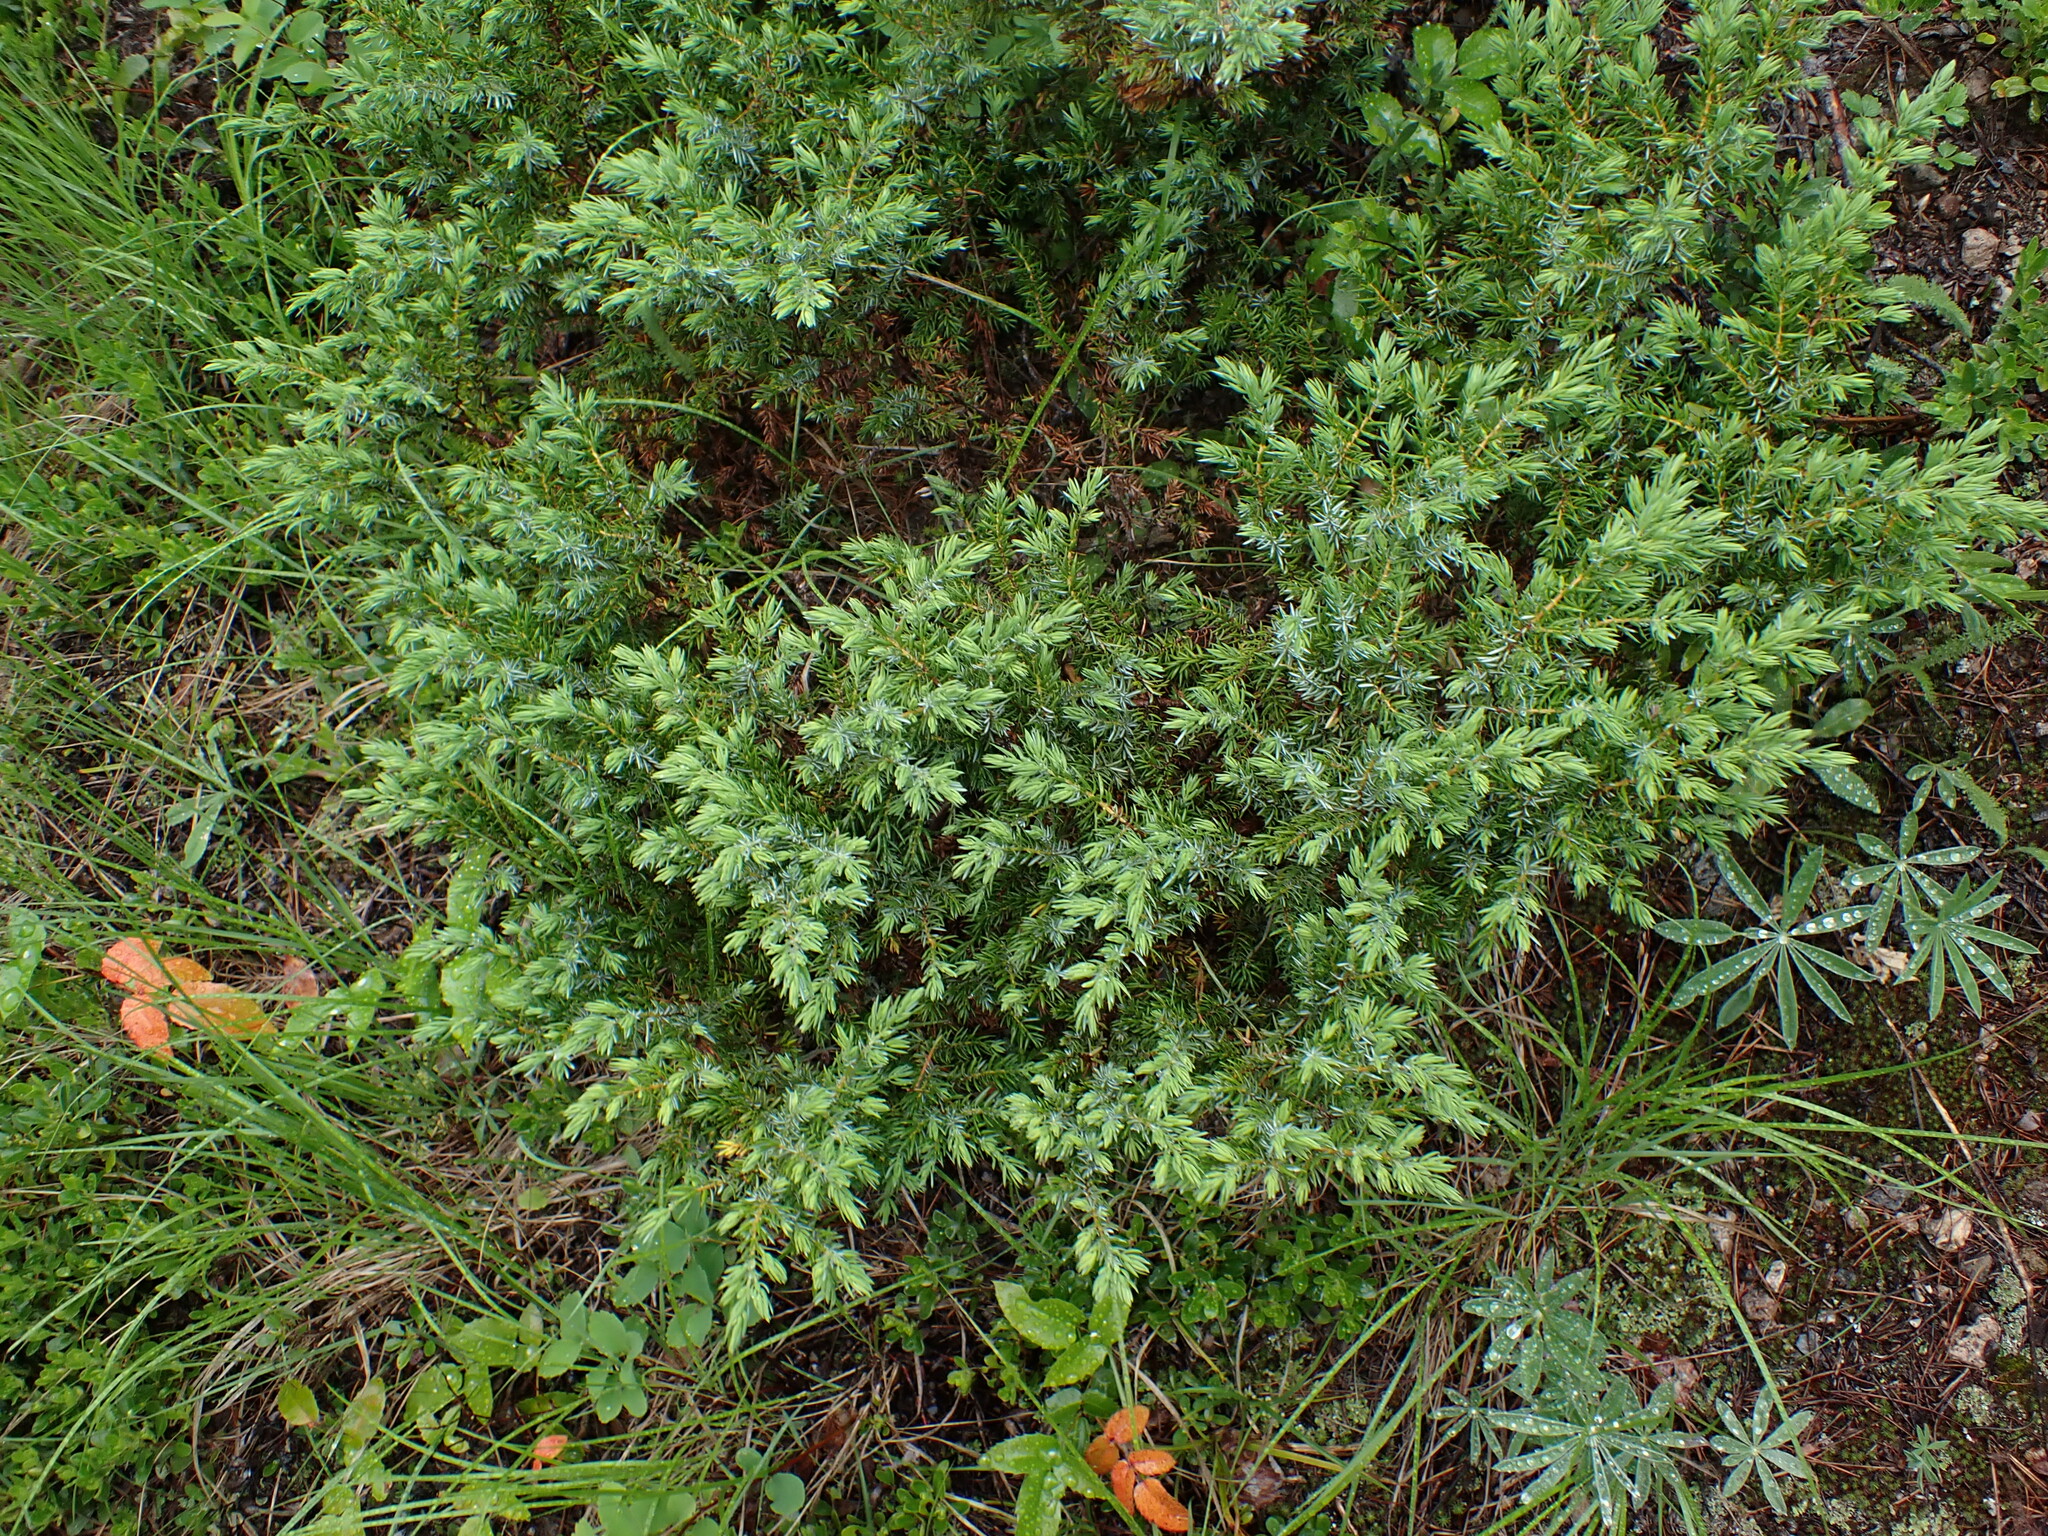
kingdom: Plantae
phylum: Tracheophyta
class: Pinopsida
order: Pinales
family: Cupressaceae
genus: Juniperus
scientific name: Juniperus communis
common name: Common juniper
